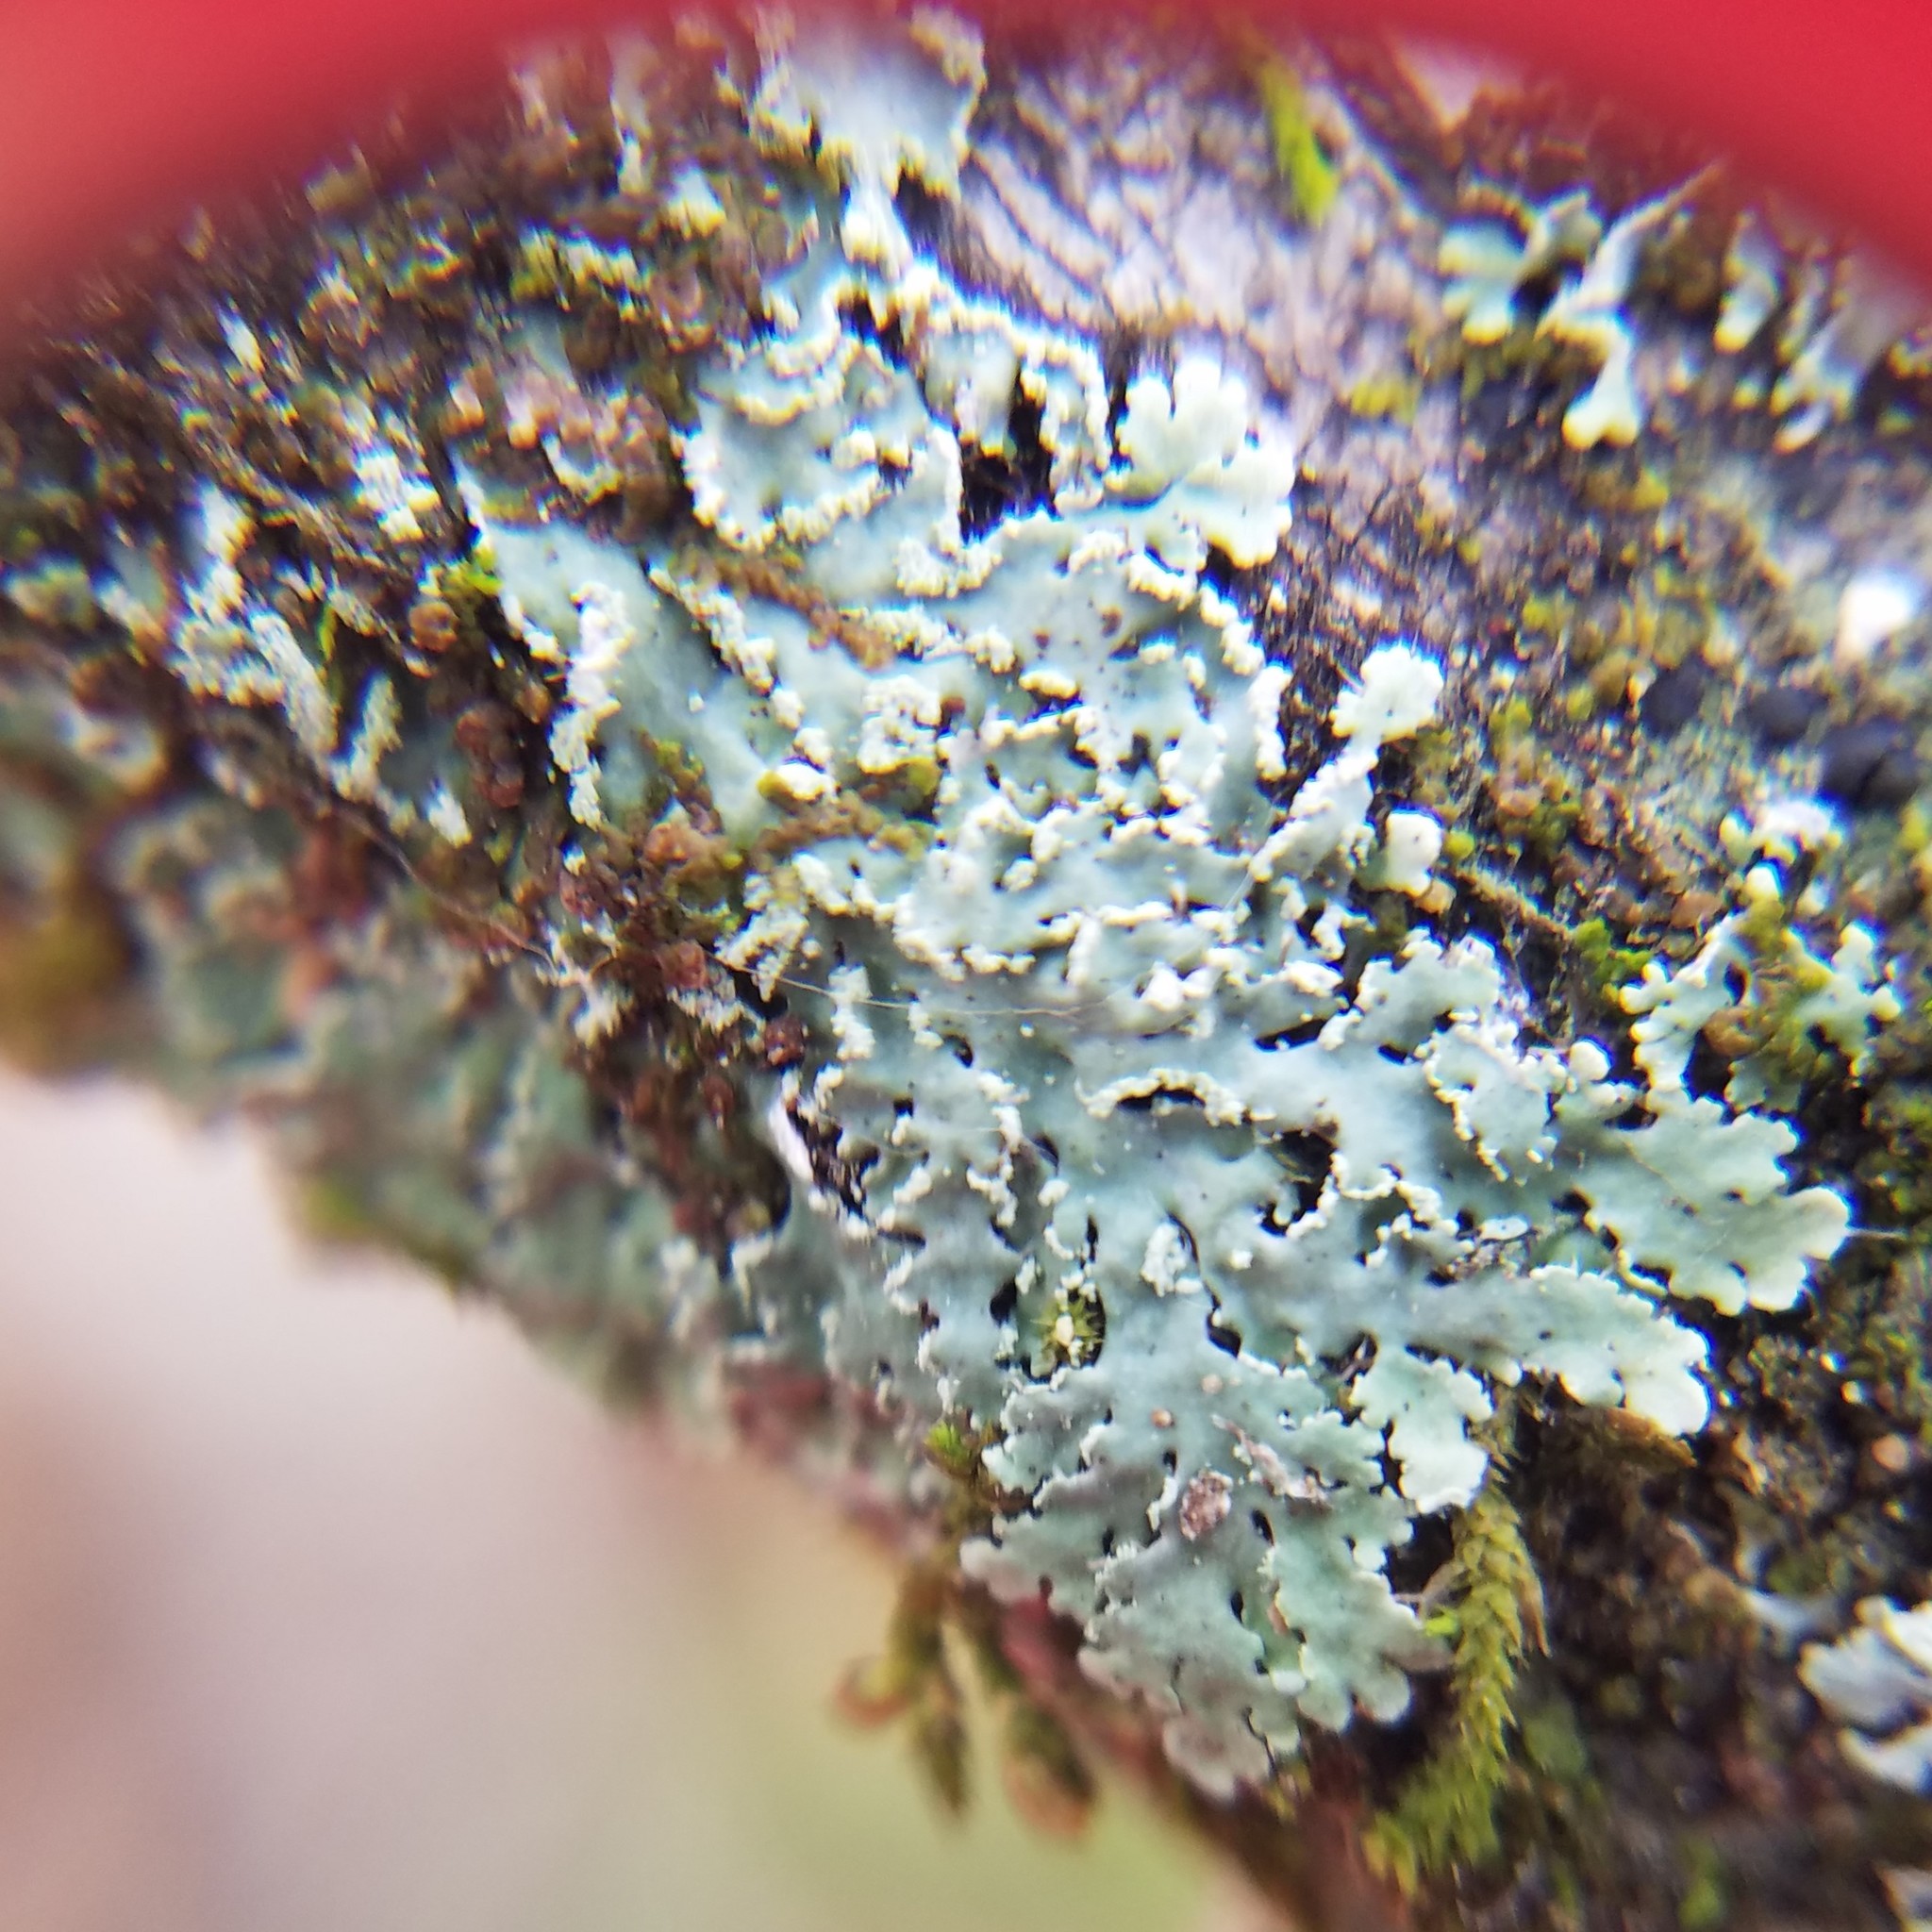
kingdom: Fungi
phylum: Ascomycota
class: Lecanoromycetes
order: Caliciales
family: Physciaceae
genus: Polyblastidium
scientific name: Polyblastidium albicans
